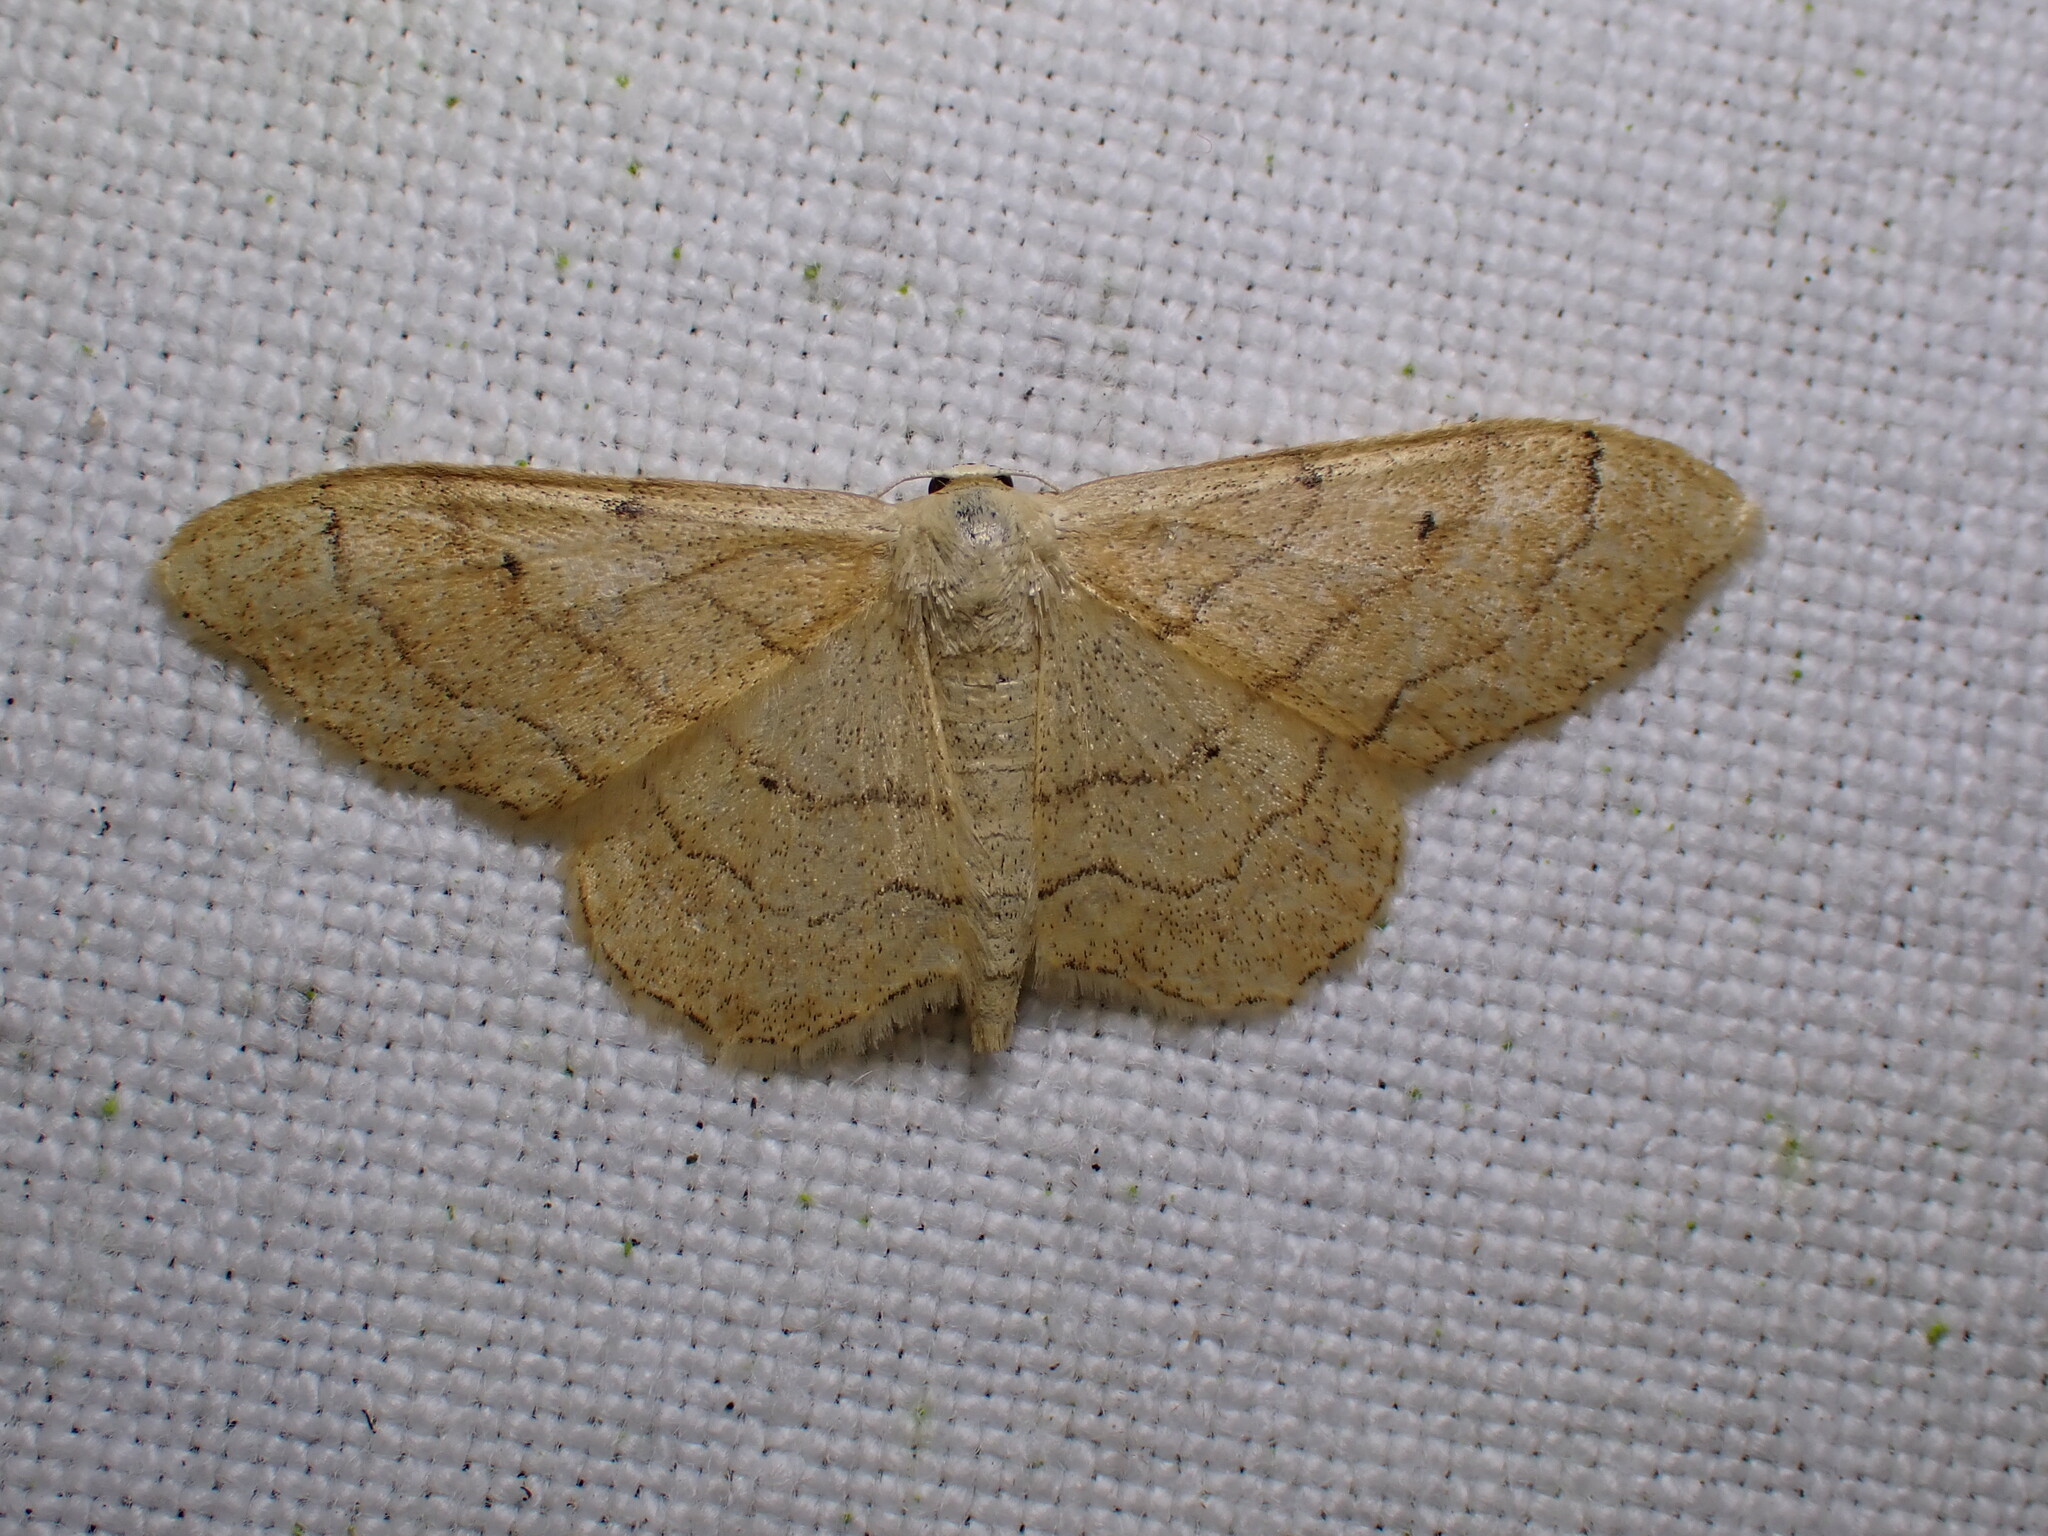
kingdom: Animalia
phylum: Arthropoda
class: Insecta
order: Lepidoptera
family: Geometridae
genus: Idaea
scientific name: Idaea aversata
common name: Riband wave
